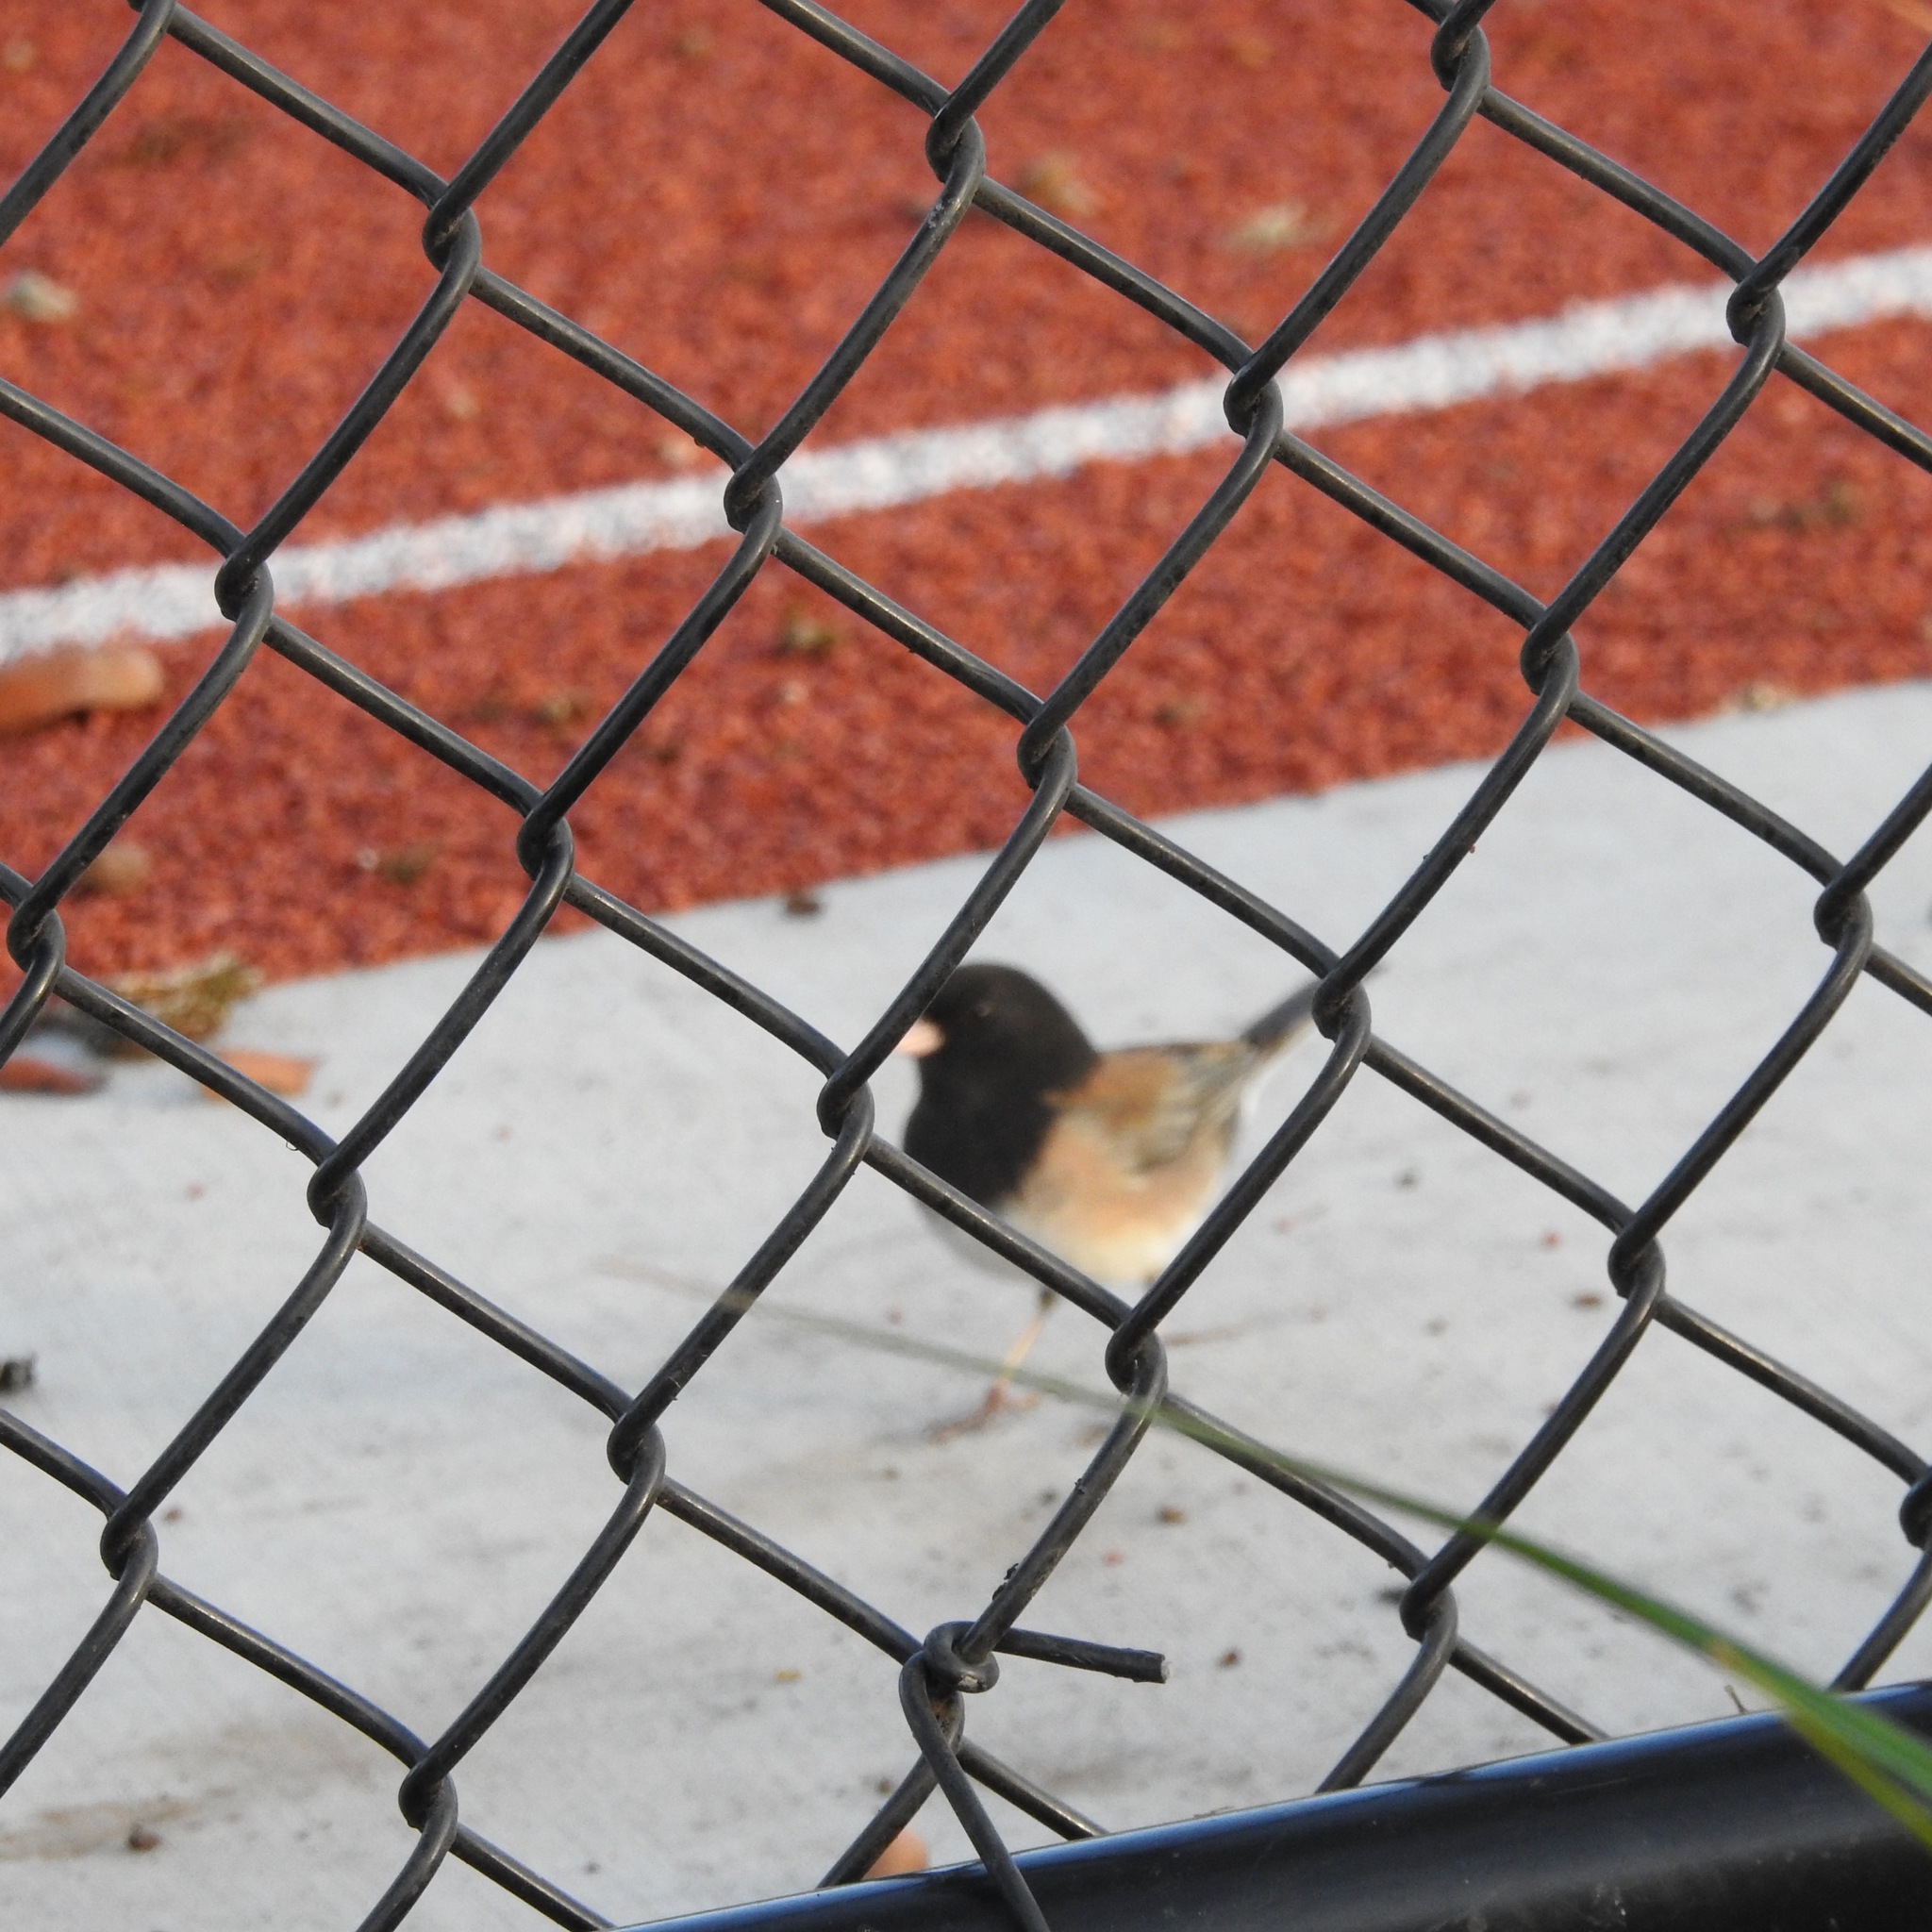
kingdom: Animalia
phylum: Chordata
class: Aves
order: Passeriformes
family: Passerellidae
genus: Junco
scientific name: Junco hyemalis
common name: Dark-eyed junco
